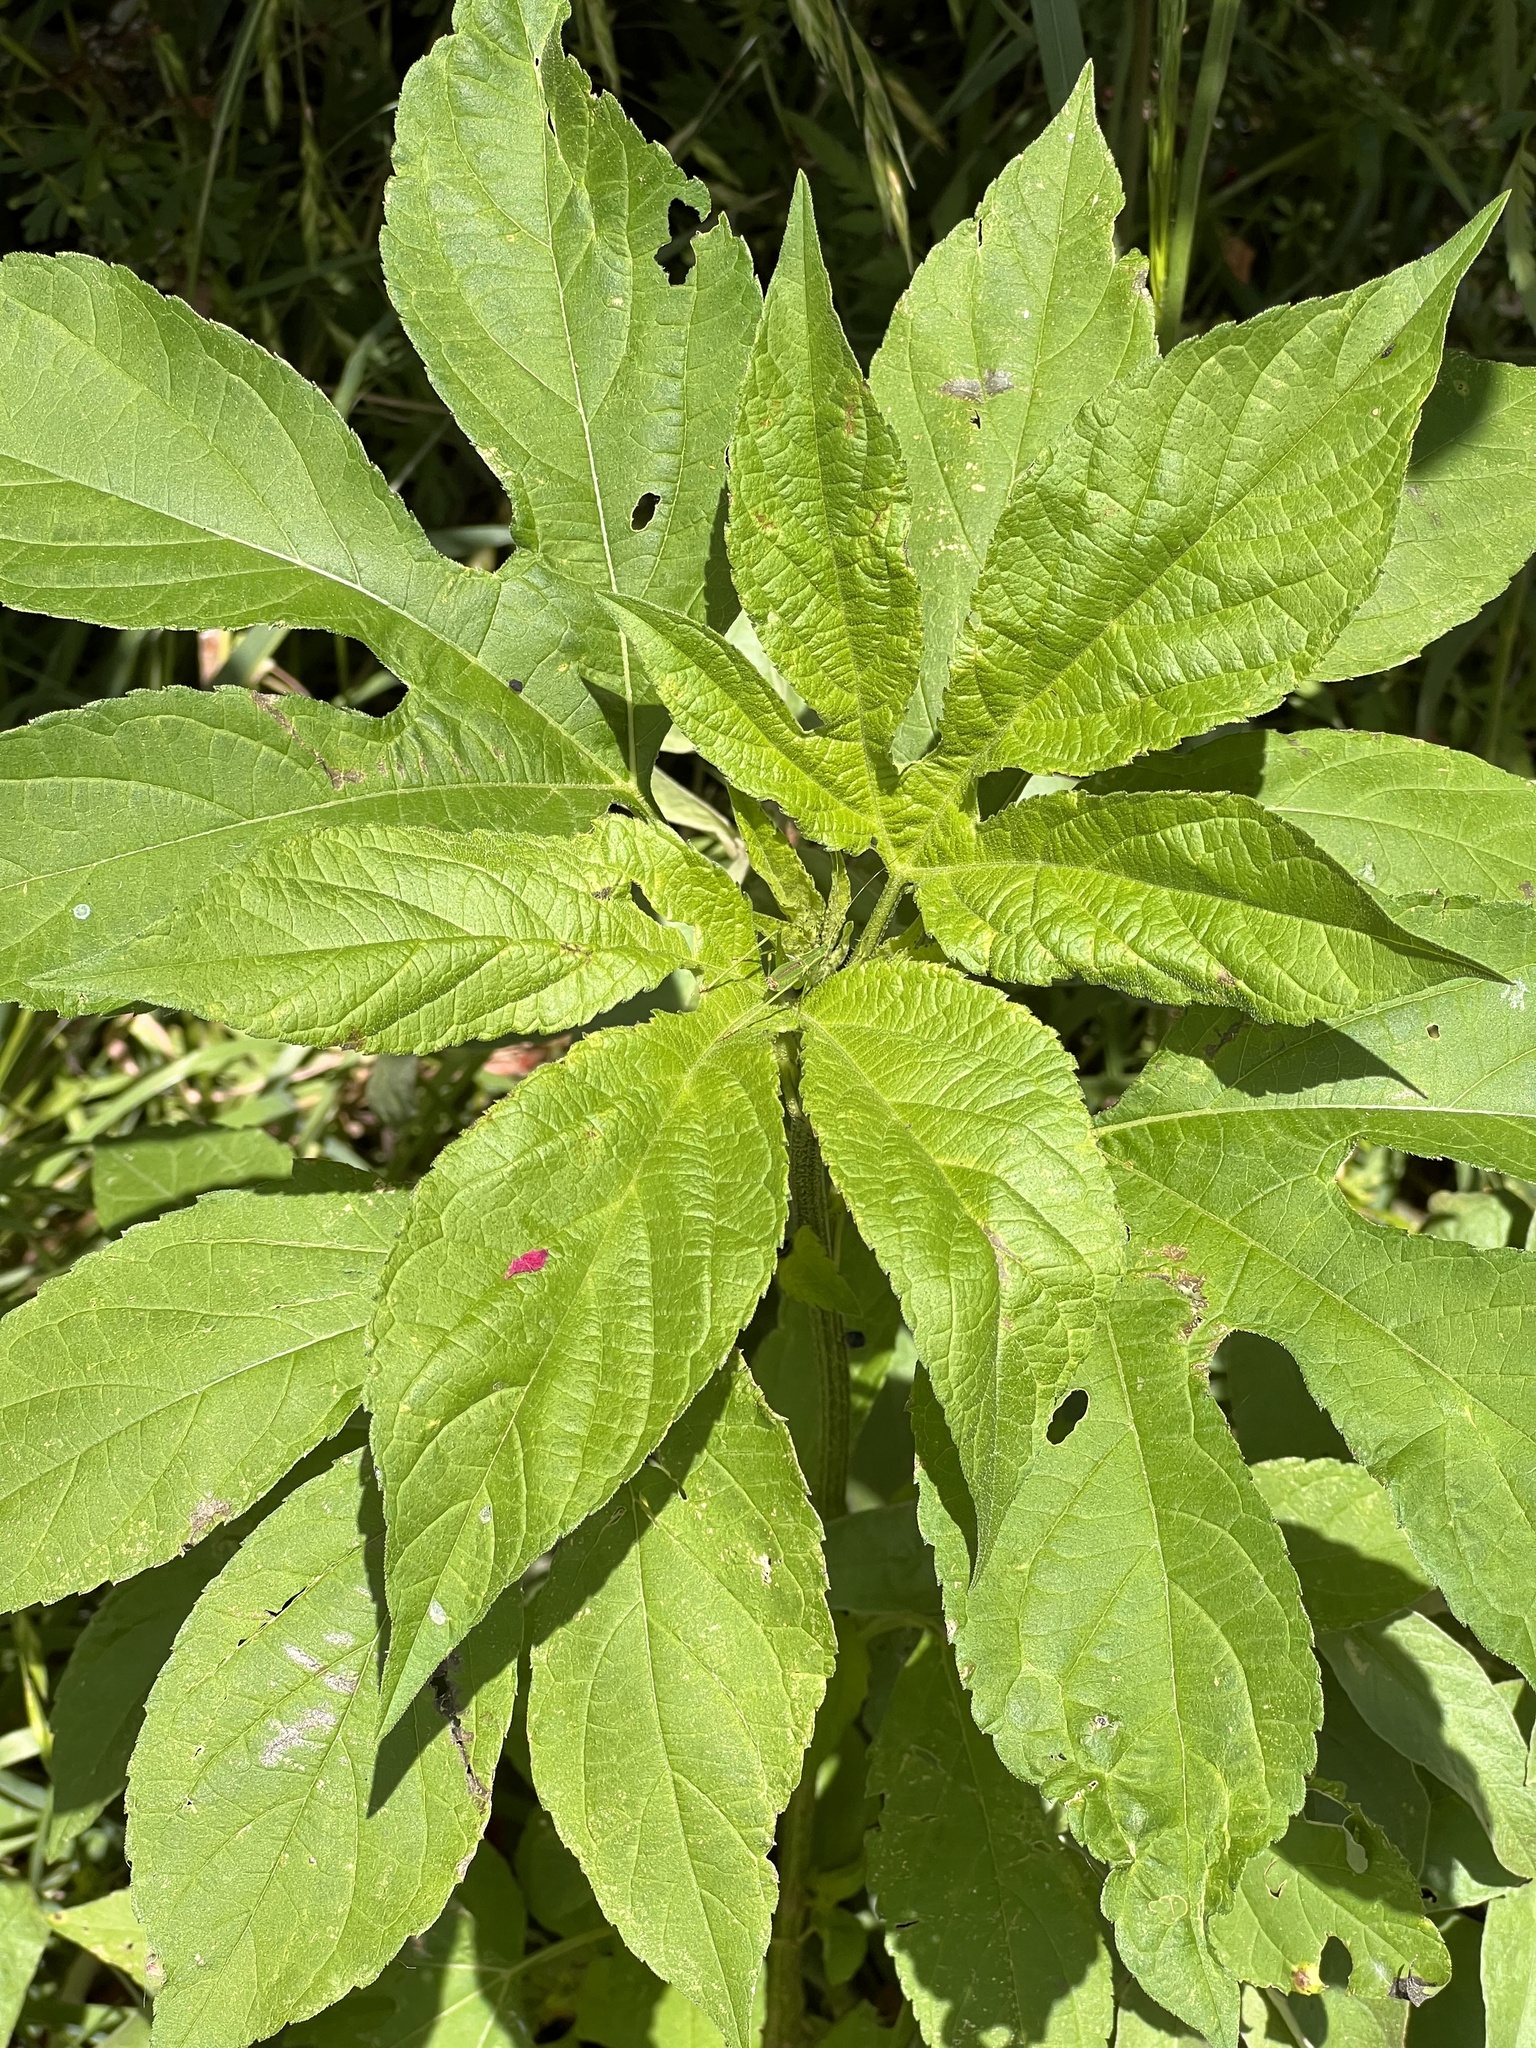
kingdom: Plantae
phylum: Tracheophyta
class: Magnoliopsida
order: Asterales
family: Asteraceae
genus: Ambrosia
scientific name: Ambrosia trifida
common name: Giant ragweed
